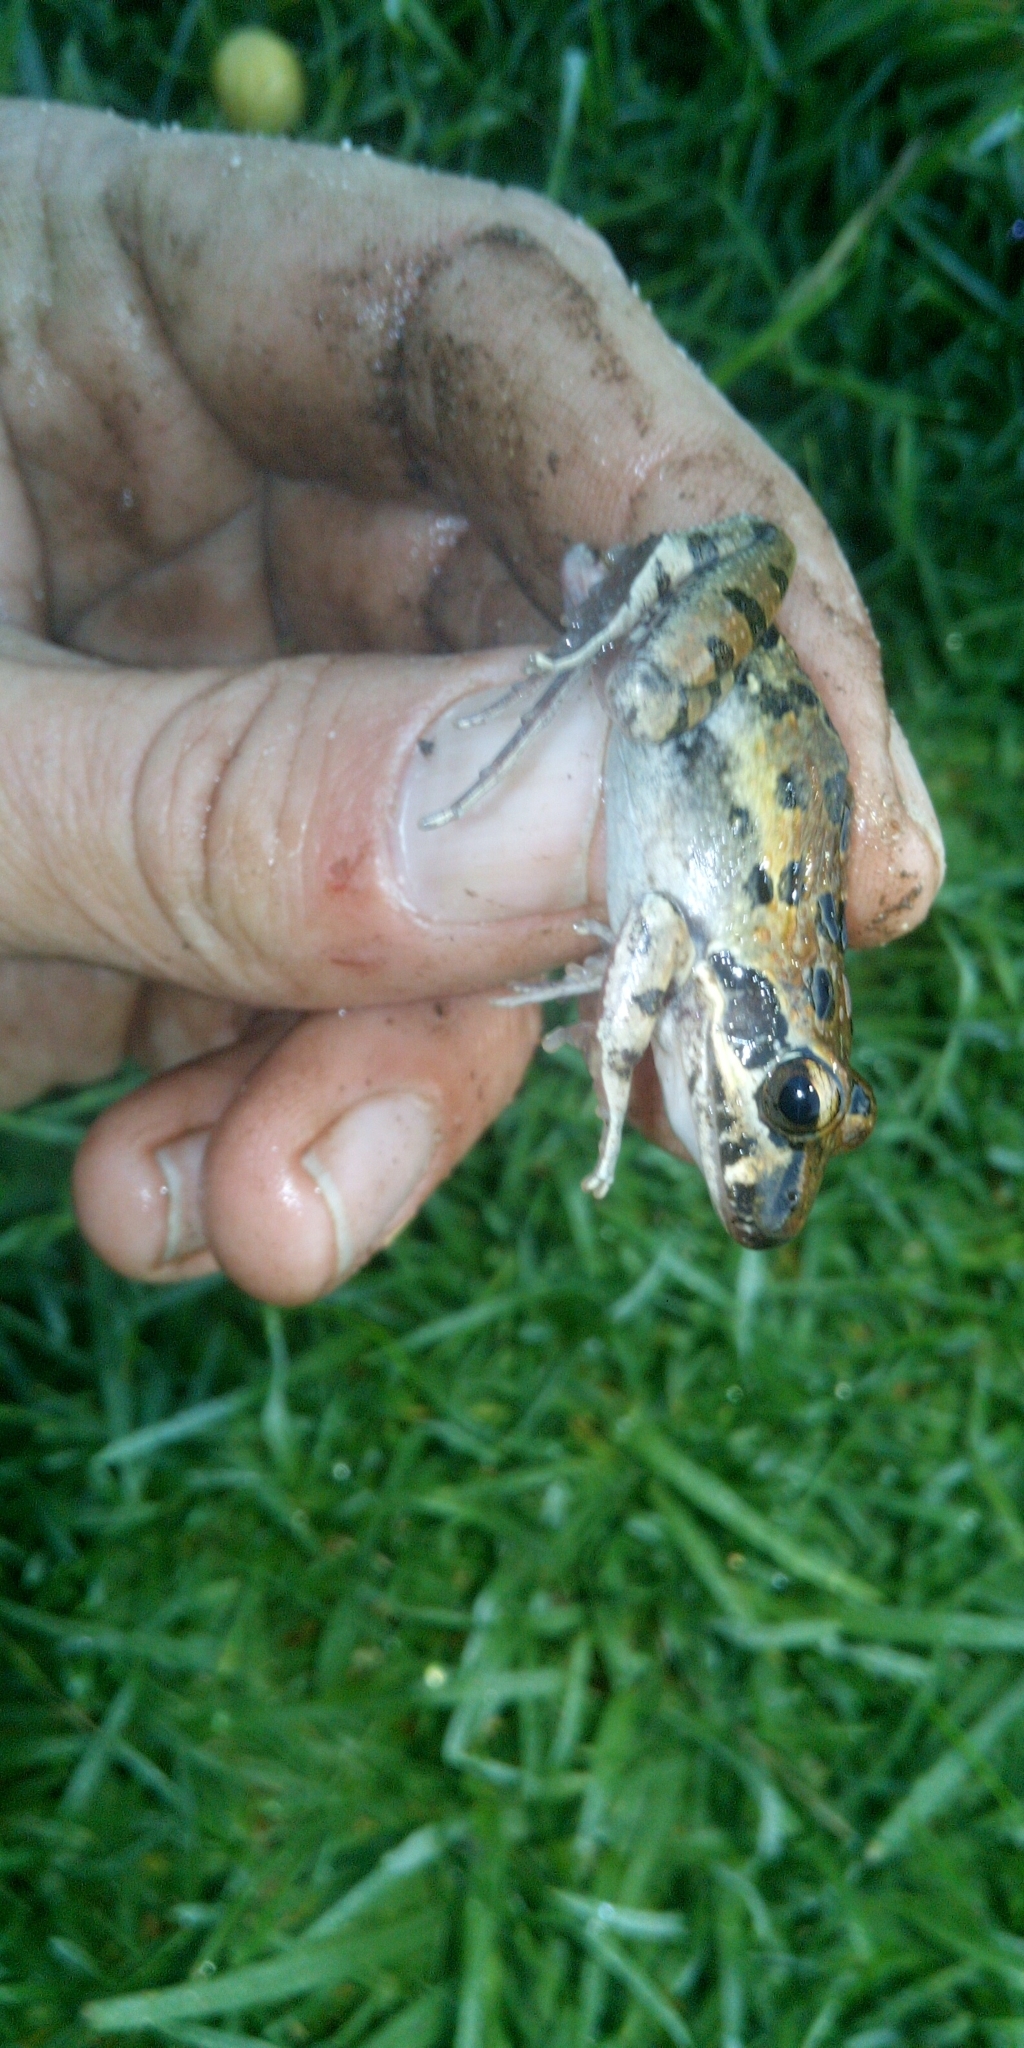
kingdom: Animalia
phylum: Chordata
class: Amphibia
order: Anura
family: Pyxicephalidae
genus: Strongylopus
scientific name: Strongylopus grayii
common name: Gray's stream frog
